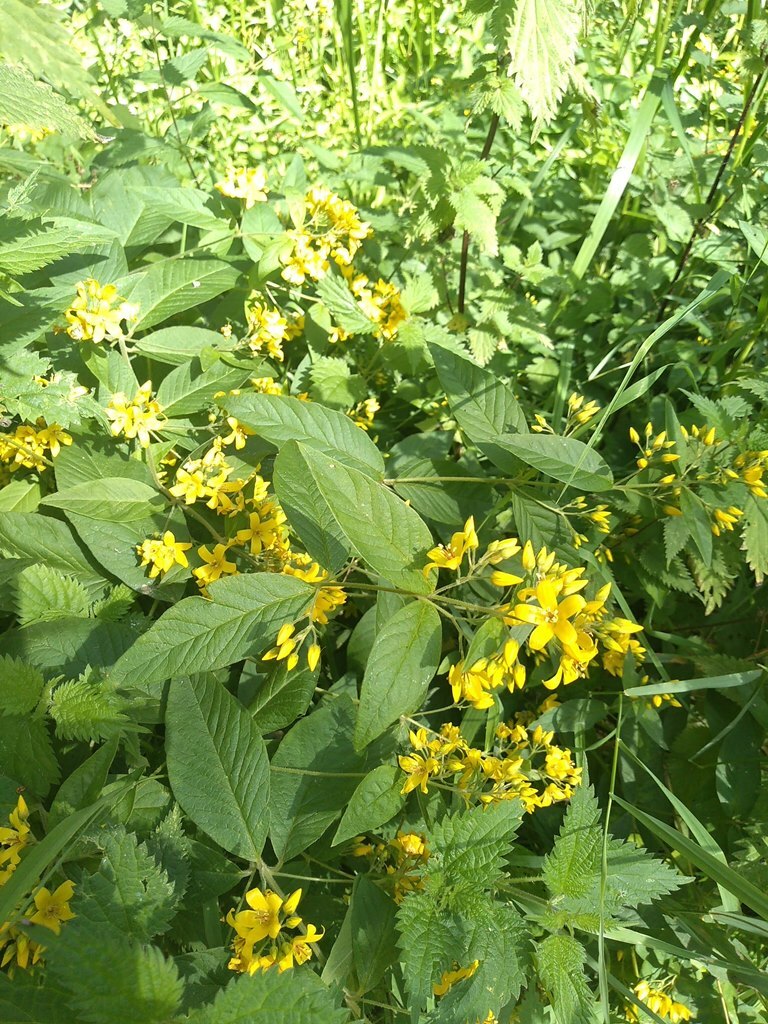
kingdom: Plantae
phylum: Tracheophyta
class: Magnoliopsida
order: Ericales
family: Primulaceae
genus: Lysimachia
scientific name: Lysimachia vulgaris
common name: Yellow loosestrife
